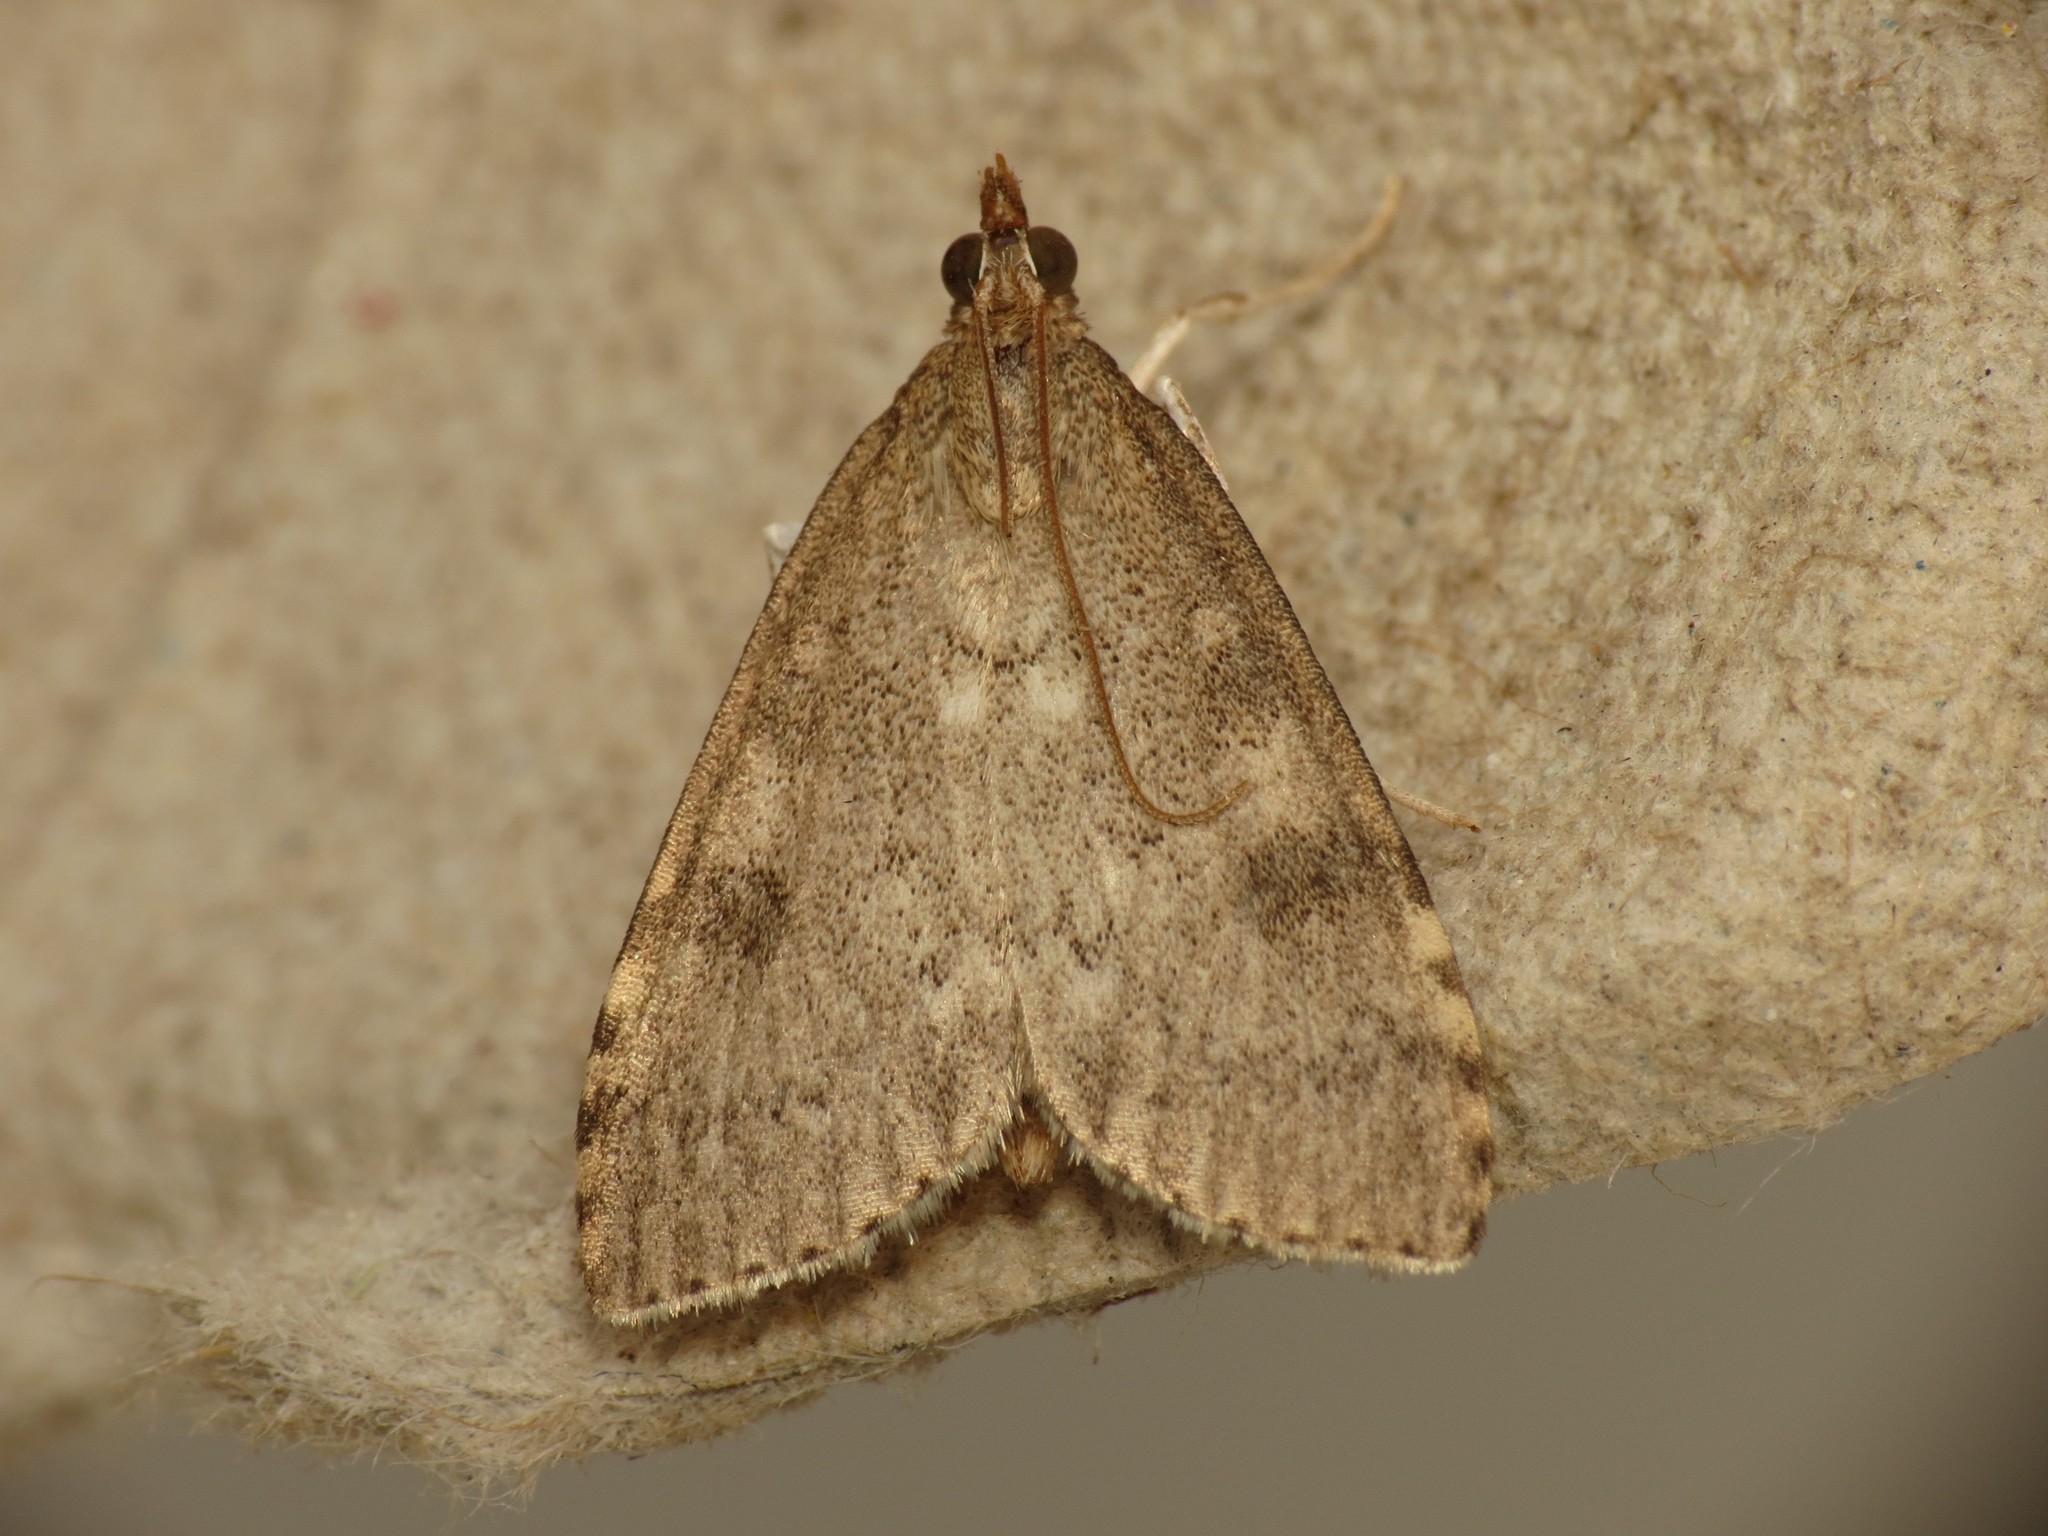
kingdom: Animalia
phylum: Arthropoda
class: Insecta
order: Lepidoptera
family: Crambidae
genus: Udea
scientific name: Udea prunalis
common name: Dusky pearl
